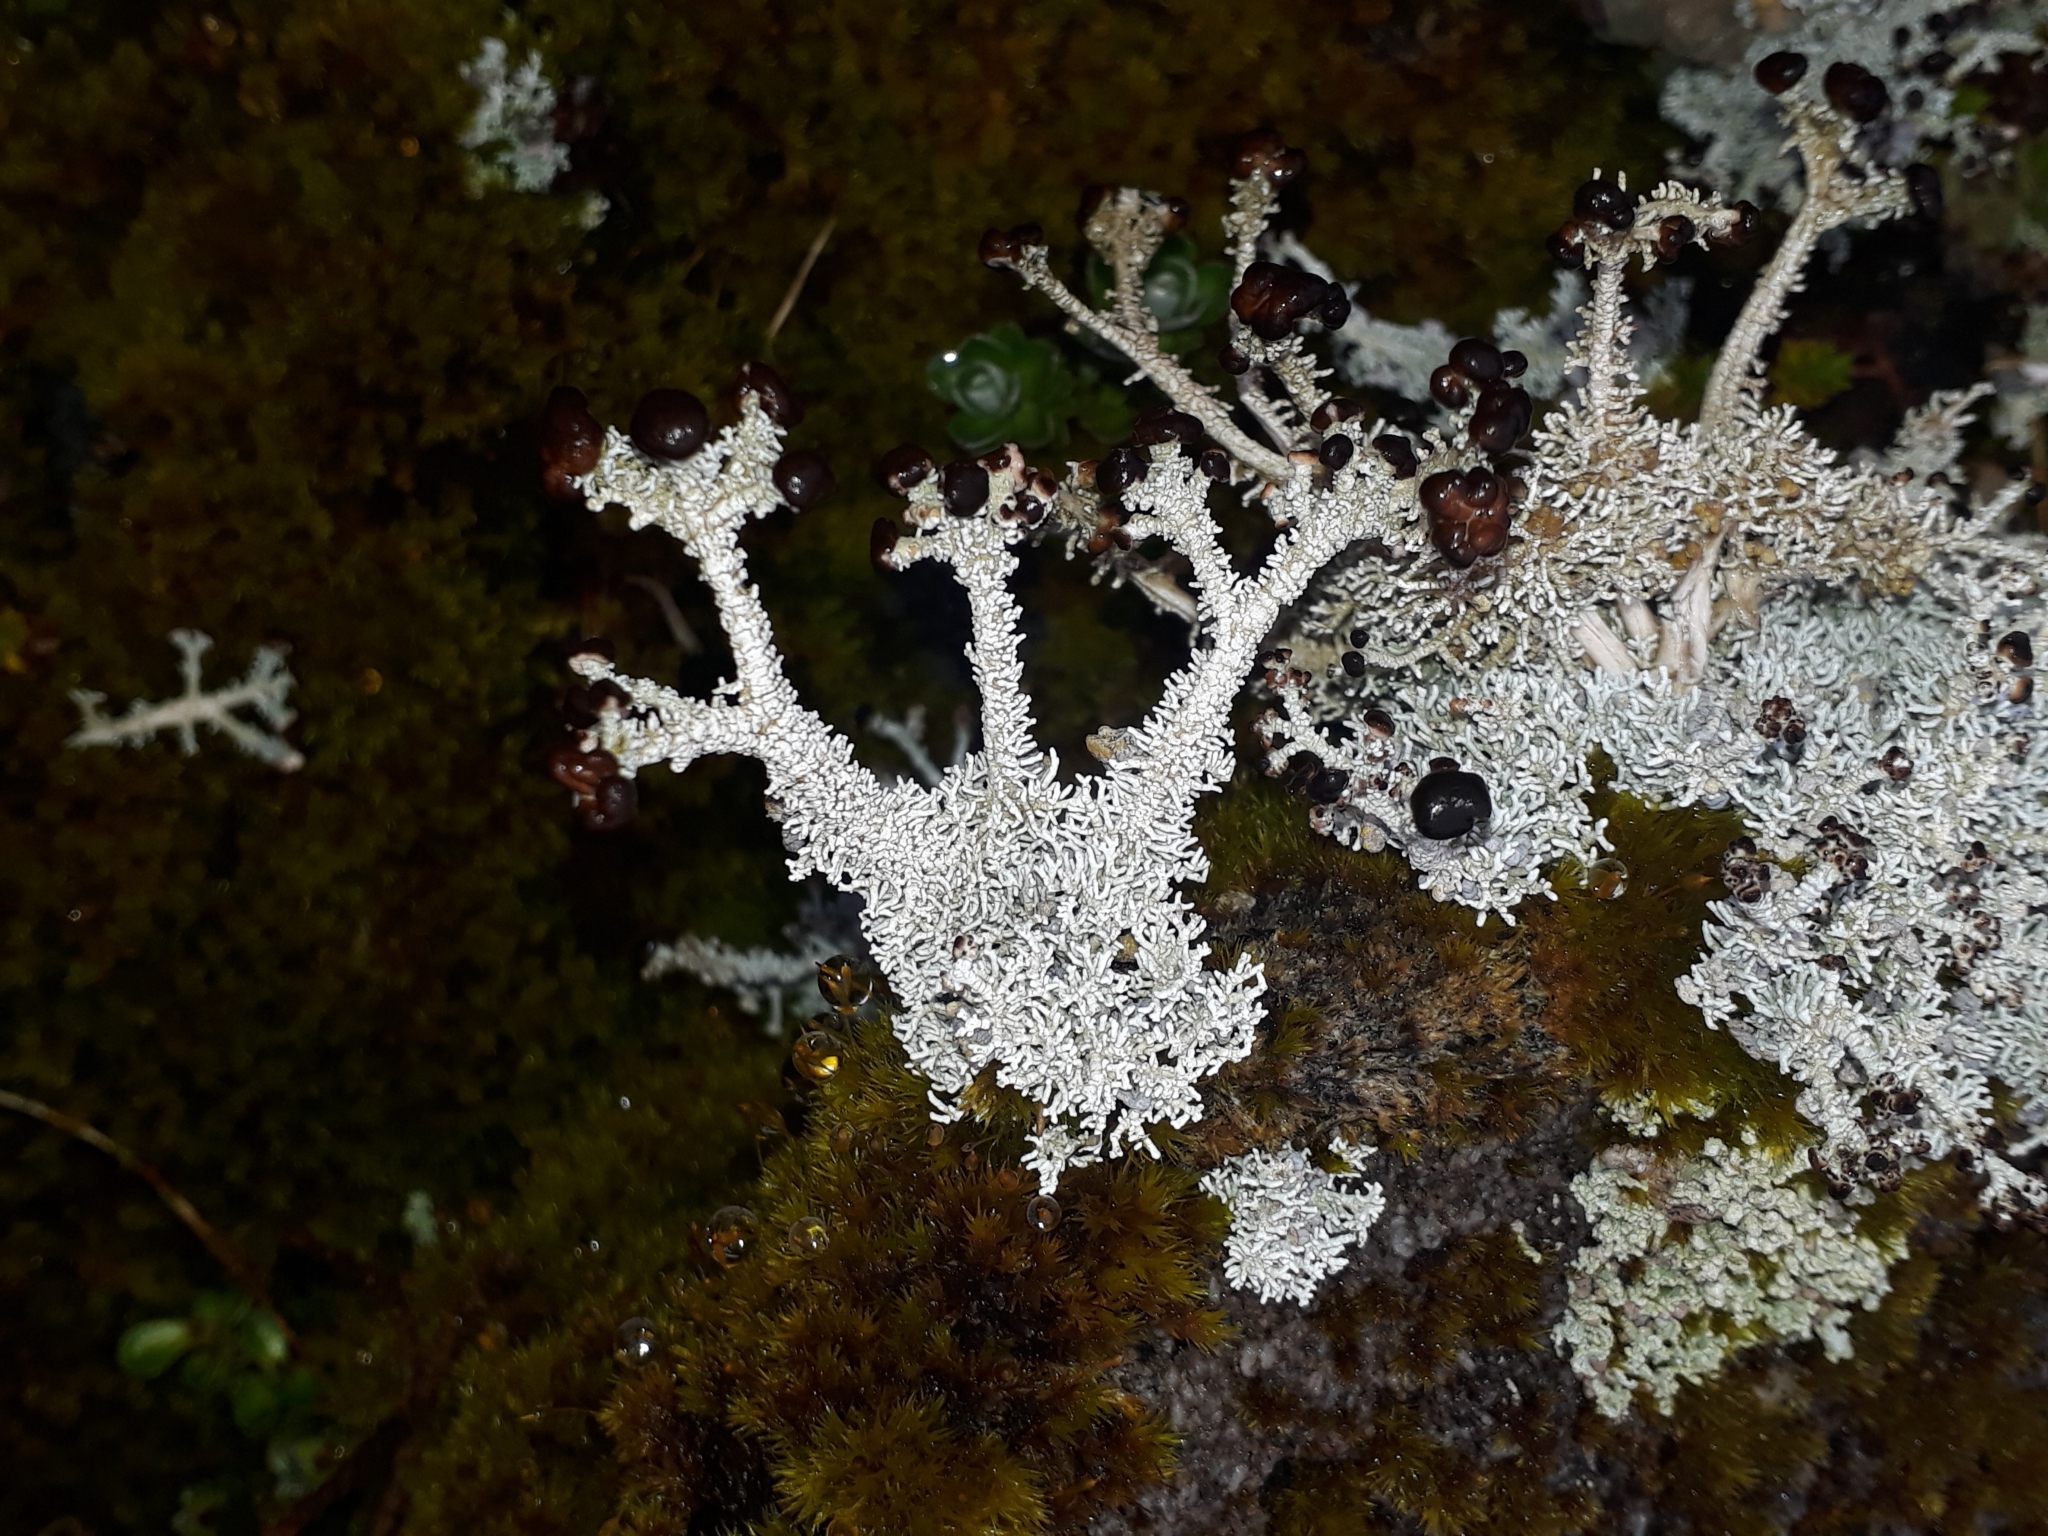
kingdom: Fungi
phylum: Ascomycota
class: Lecanoromycetes
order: Lecanorales
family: Stereocaulaceae
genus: Stereocaulon
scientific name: Stereocaulon
